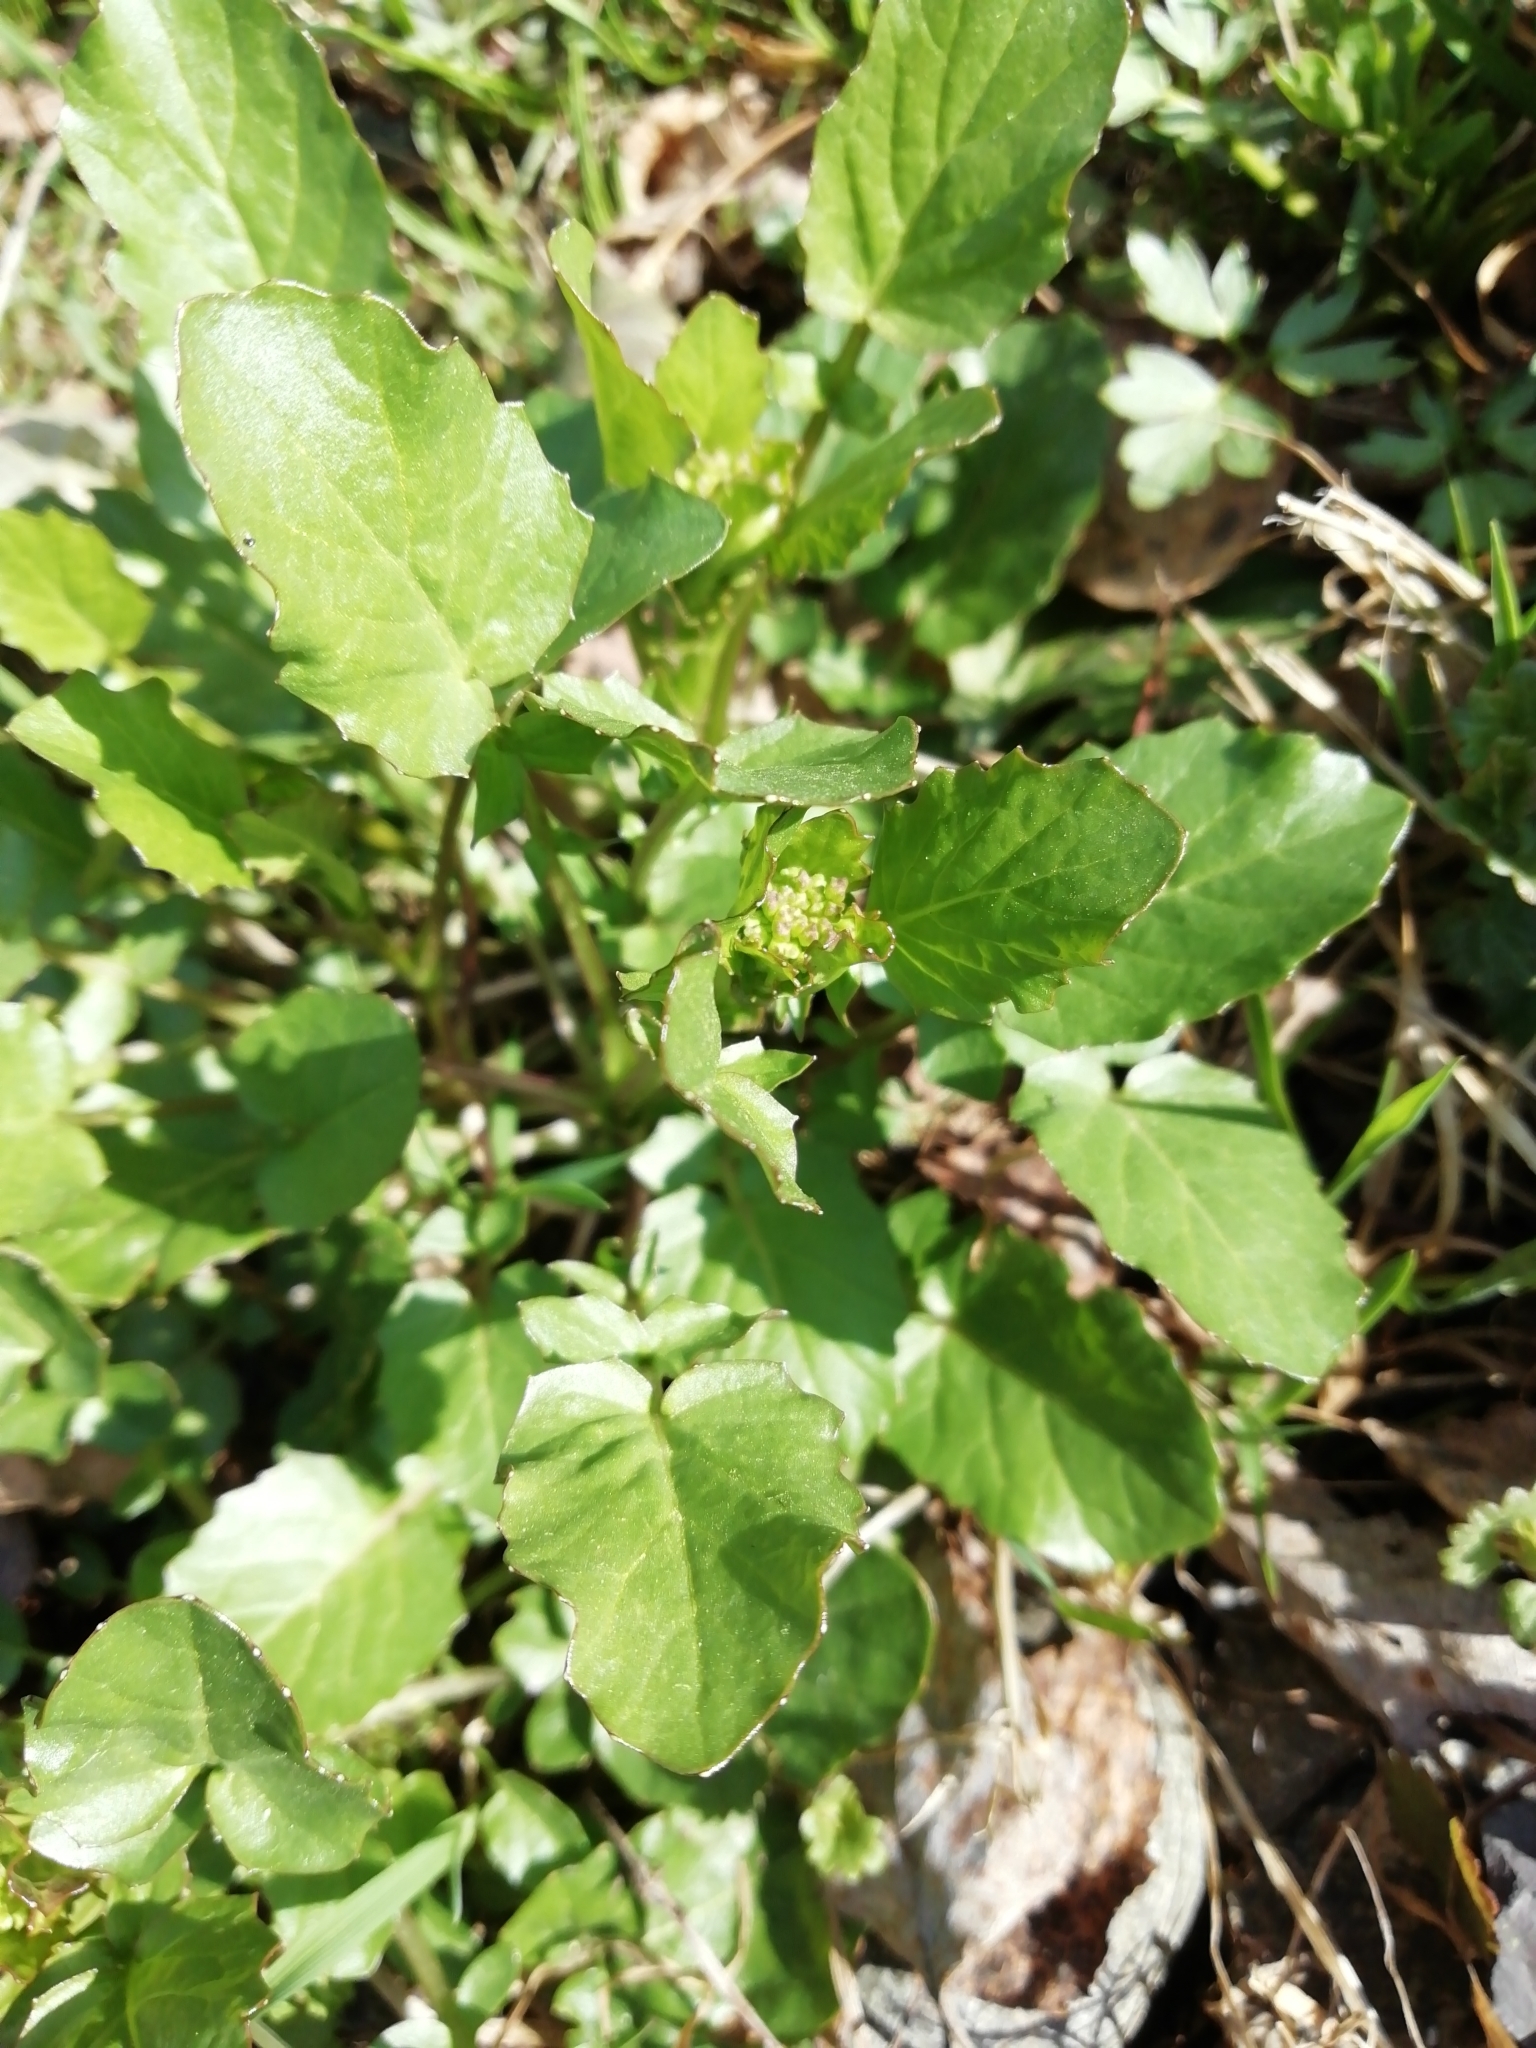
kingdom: Plantae
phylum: Tracheophyta
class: Magnoliopsida
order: Brassicales
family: Brassicaceae
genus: Barbarea
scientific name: Barbarea vulgaris
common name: Cressy-greens
